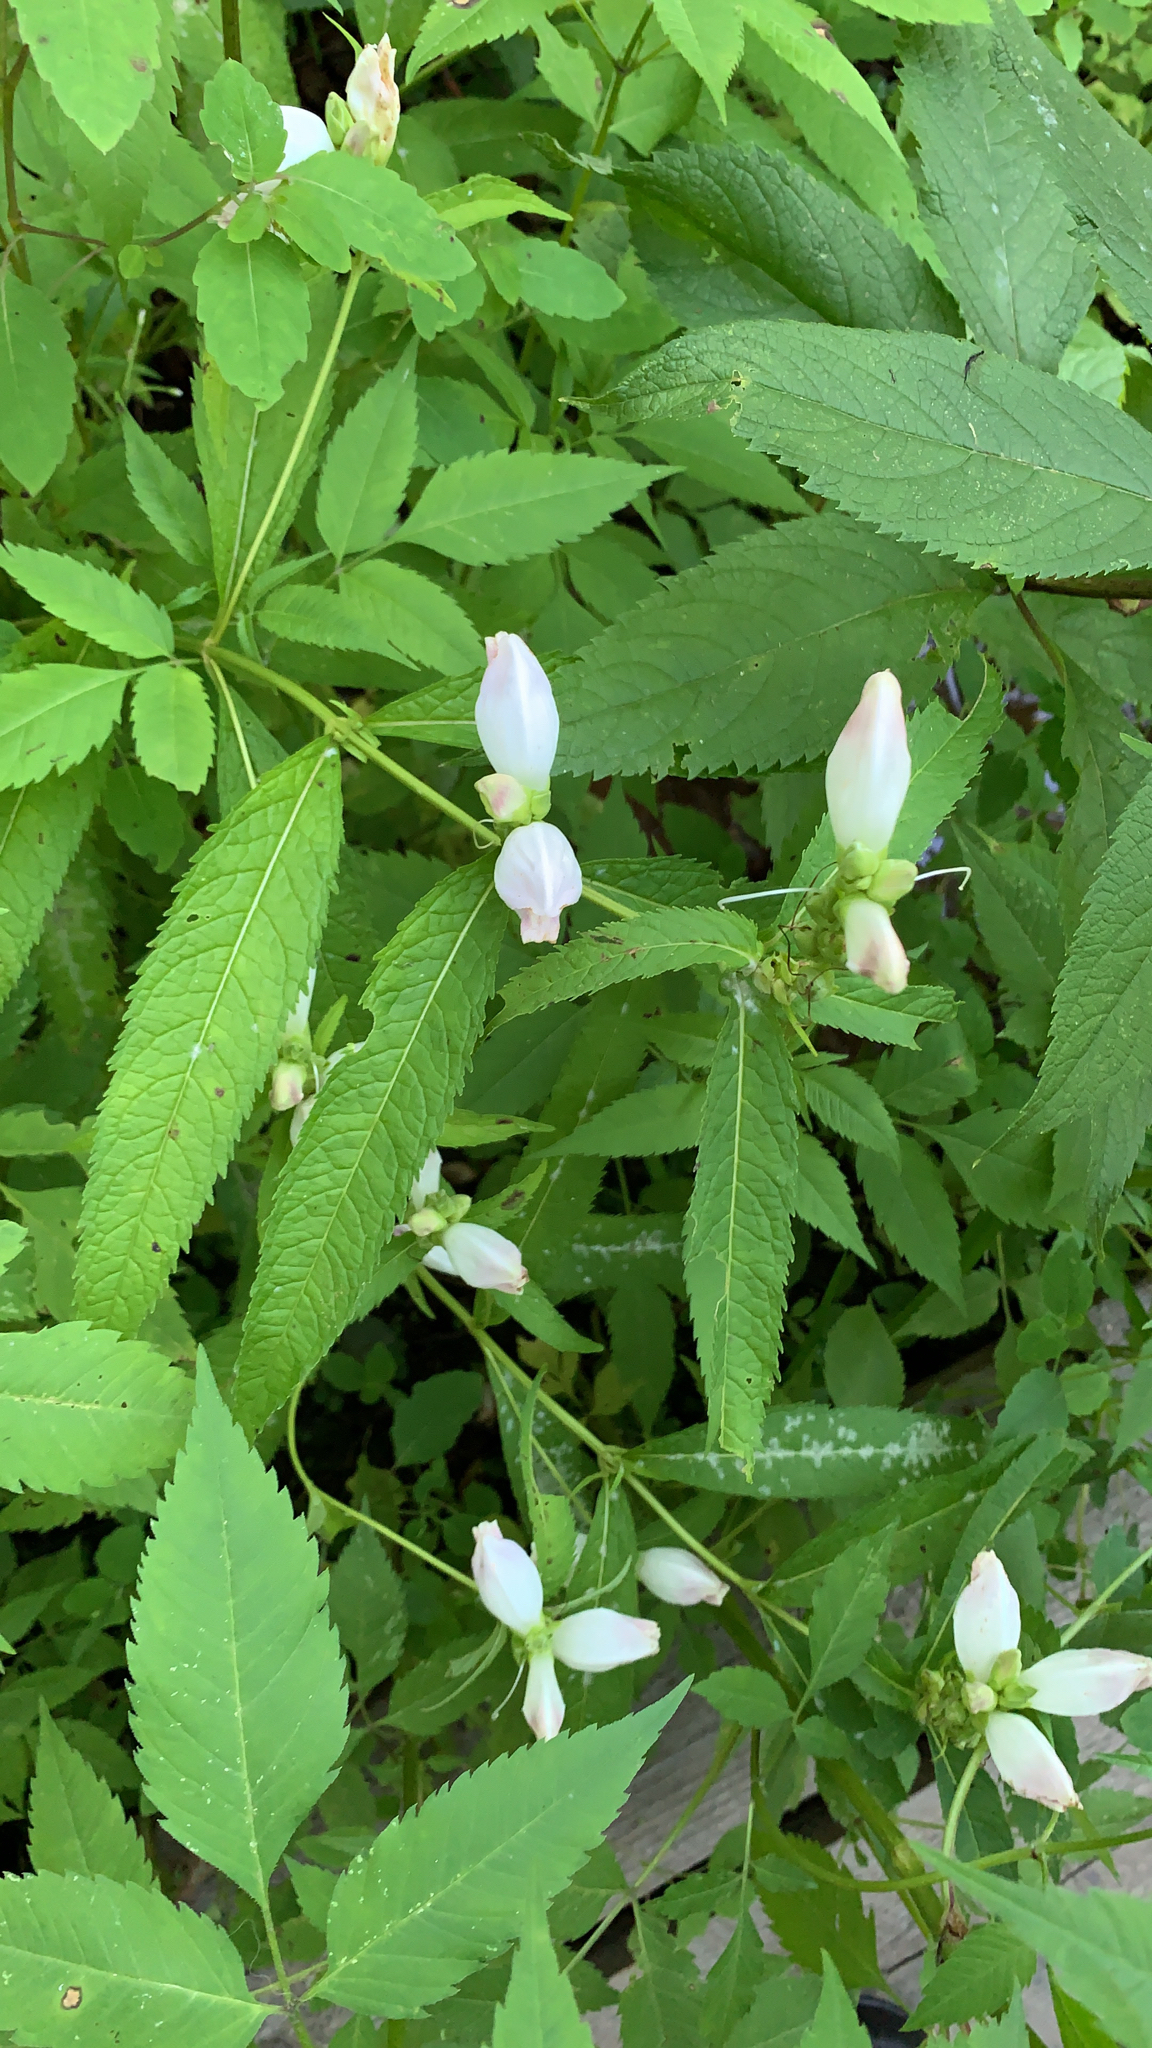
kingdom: Plantae
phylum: Tracheophyta
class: Magnoliopsida
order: Lamiales
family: Plantaginaceae
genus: Chelone
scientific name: Chelone glabra
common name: Snakehead
